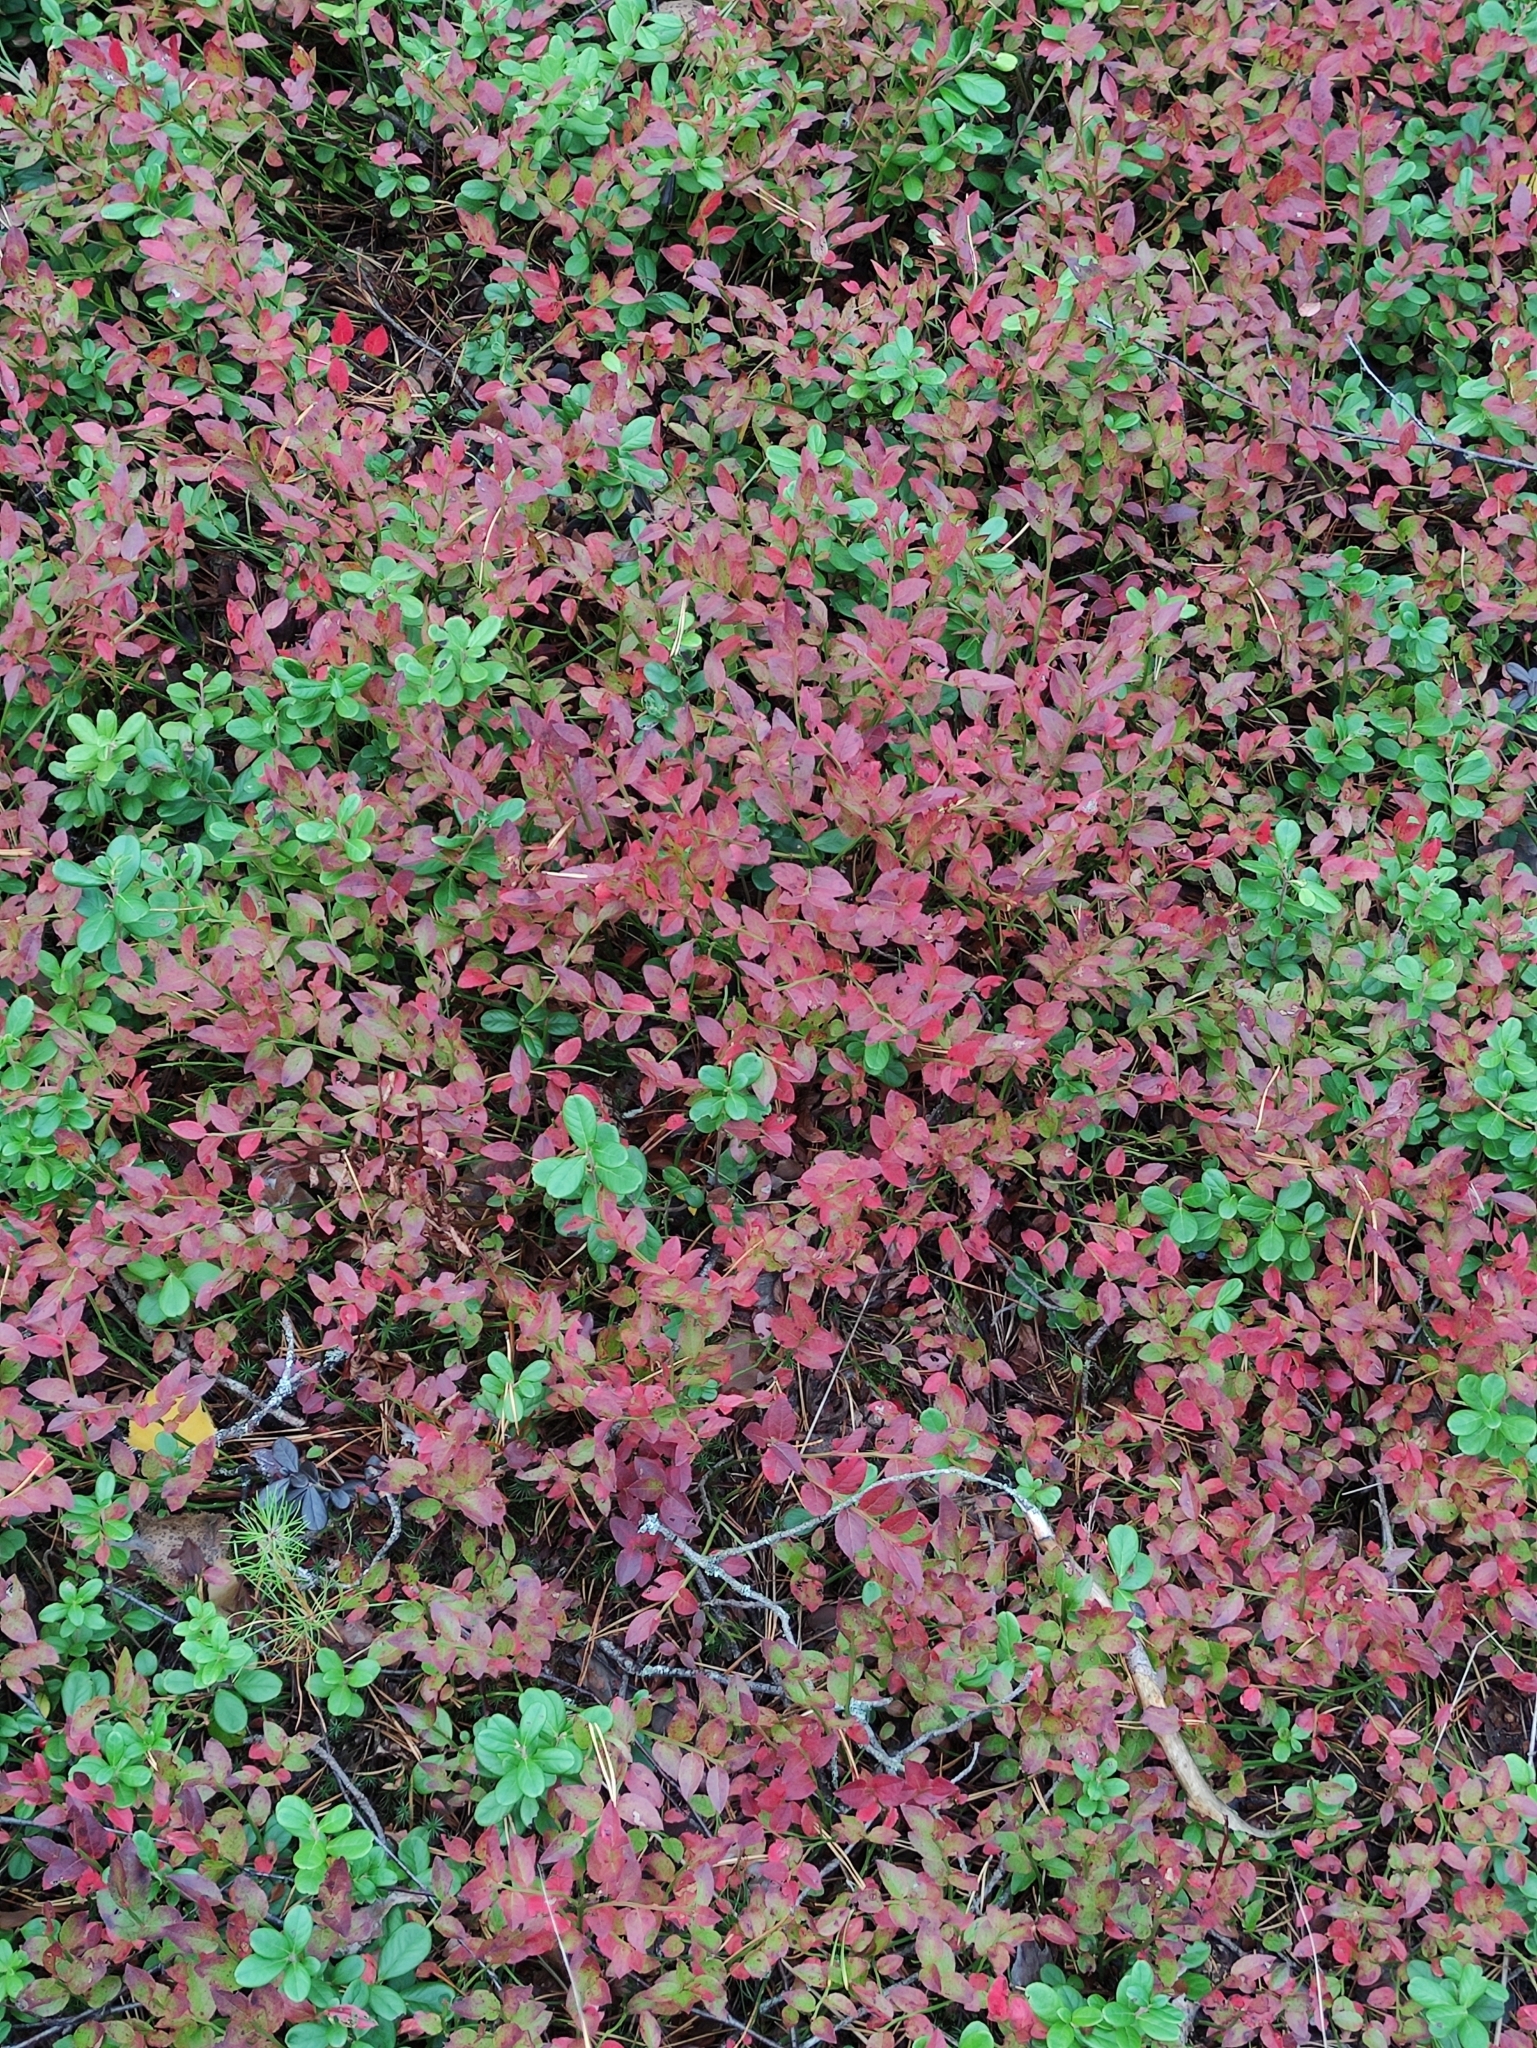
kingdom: Plantae
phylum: Tracheophyta
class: Magnoliopsida
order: Ericales
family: Ericaceae
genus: Vaccinium
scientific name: Vaccinium myrtillus
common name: Bilberry
